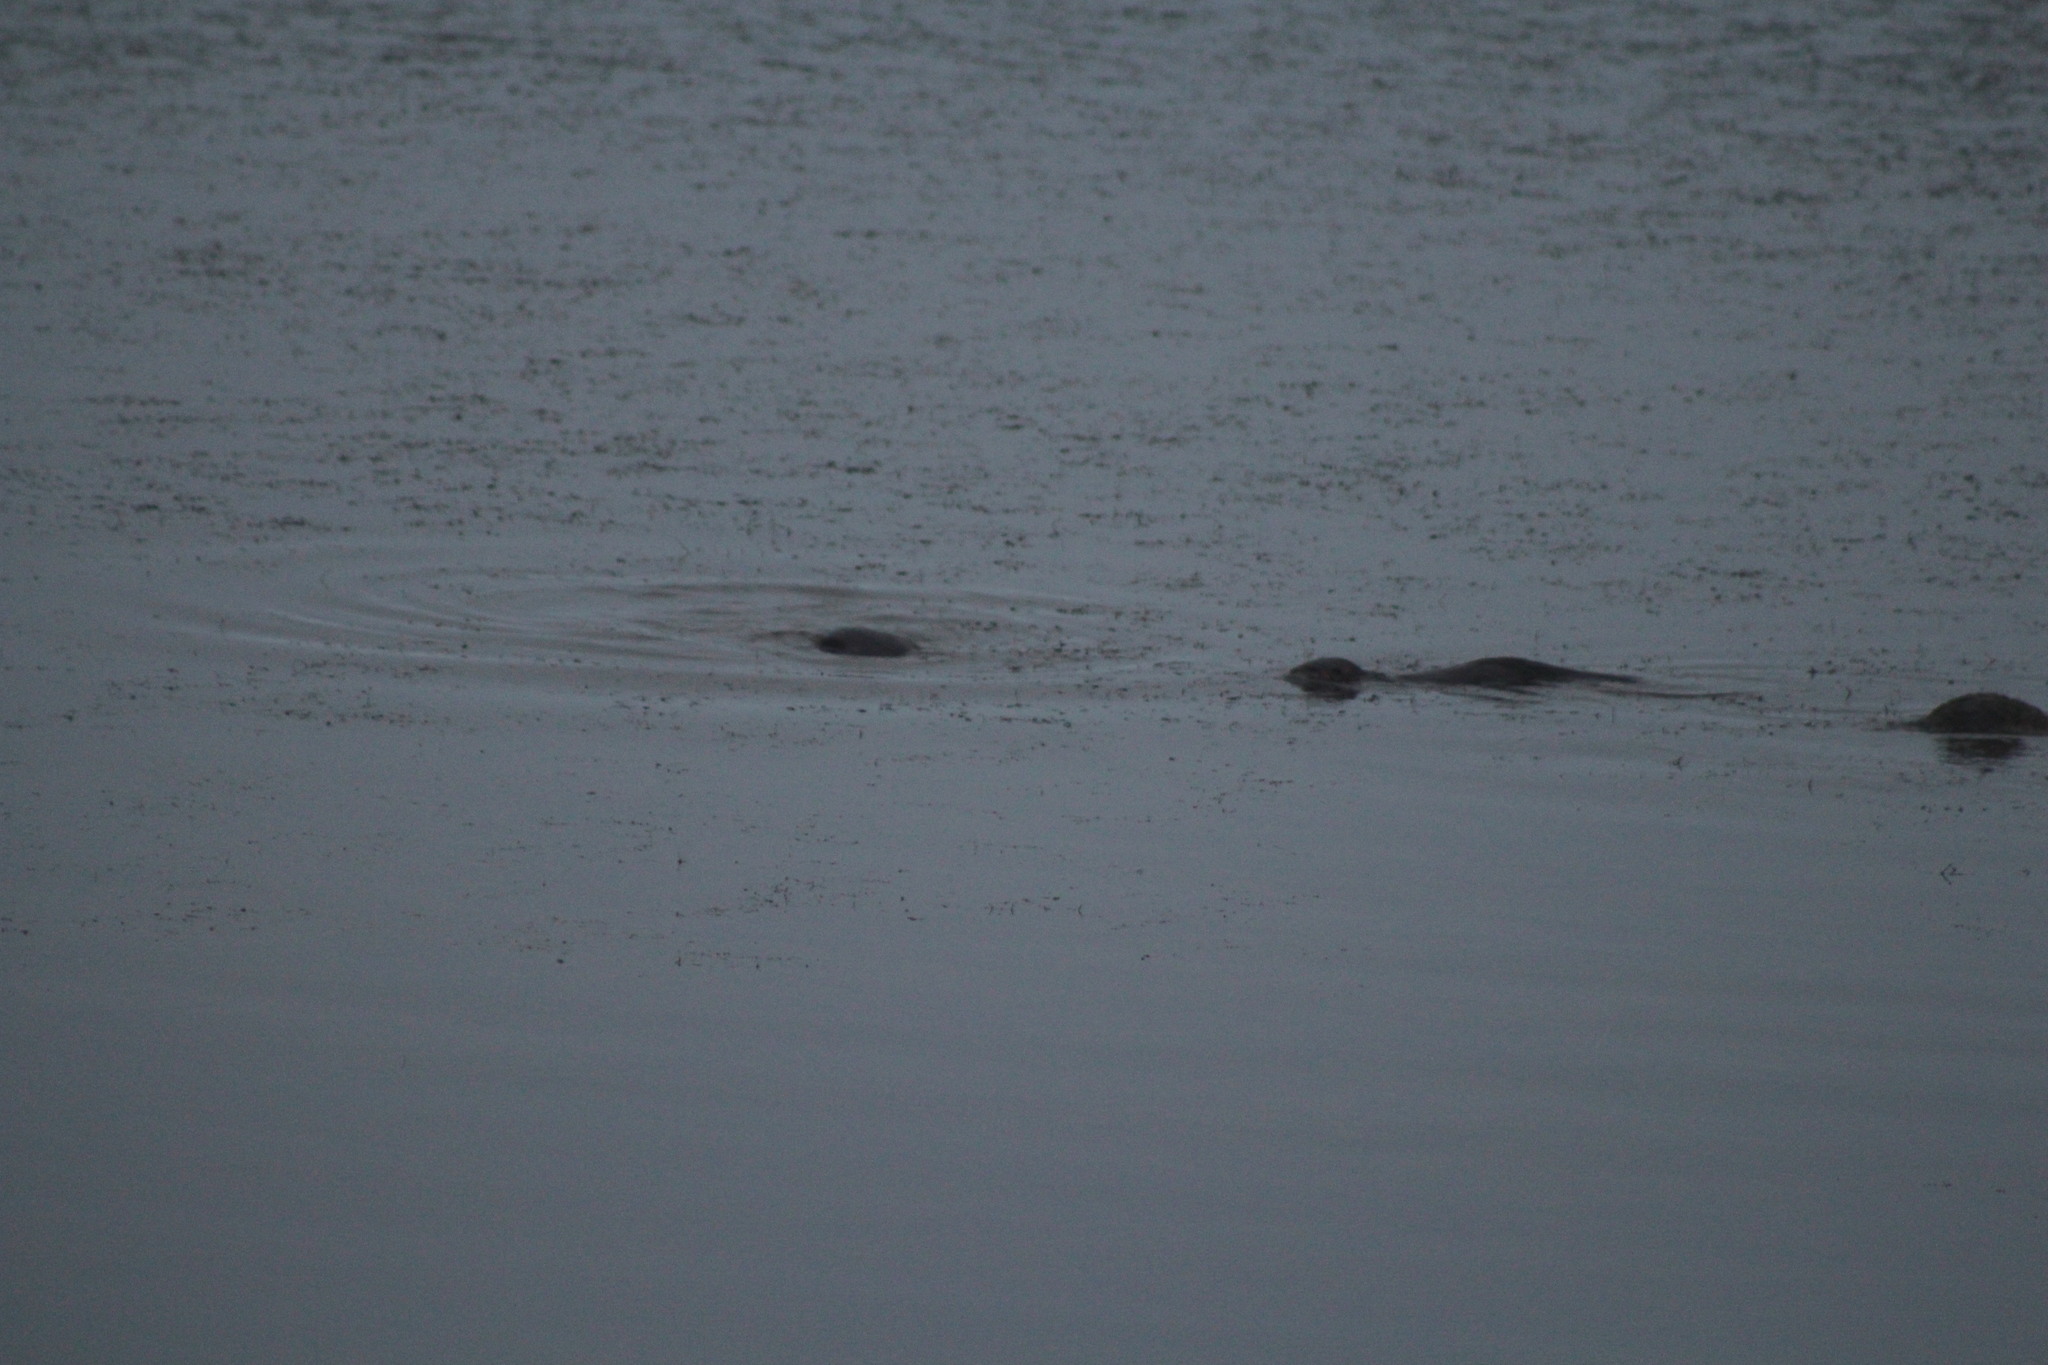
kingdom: Animalia
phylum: Chordata
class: Mammalia
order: Carnivora
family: Mustelidae
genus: Lontra
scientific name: Lontra canadensis
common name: North american river otter
